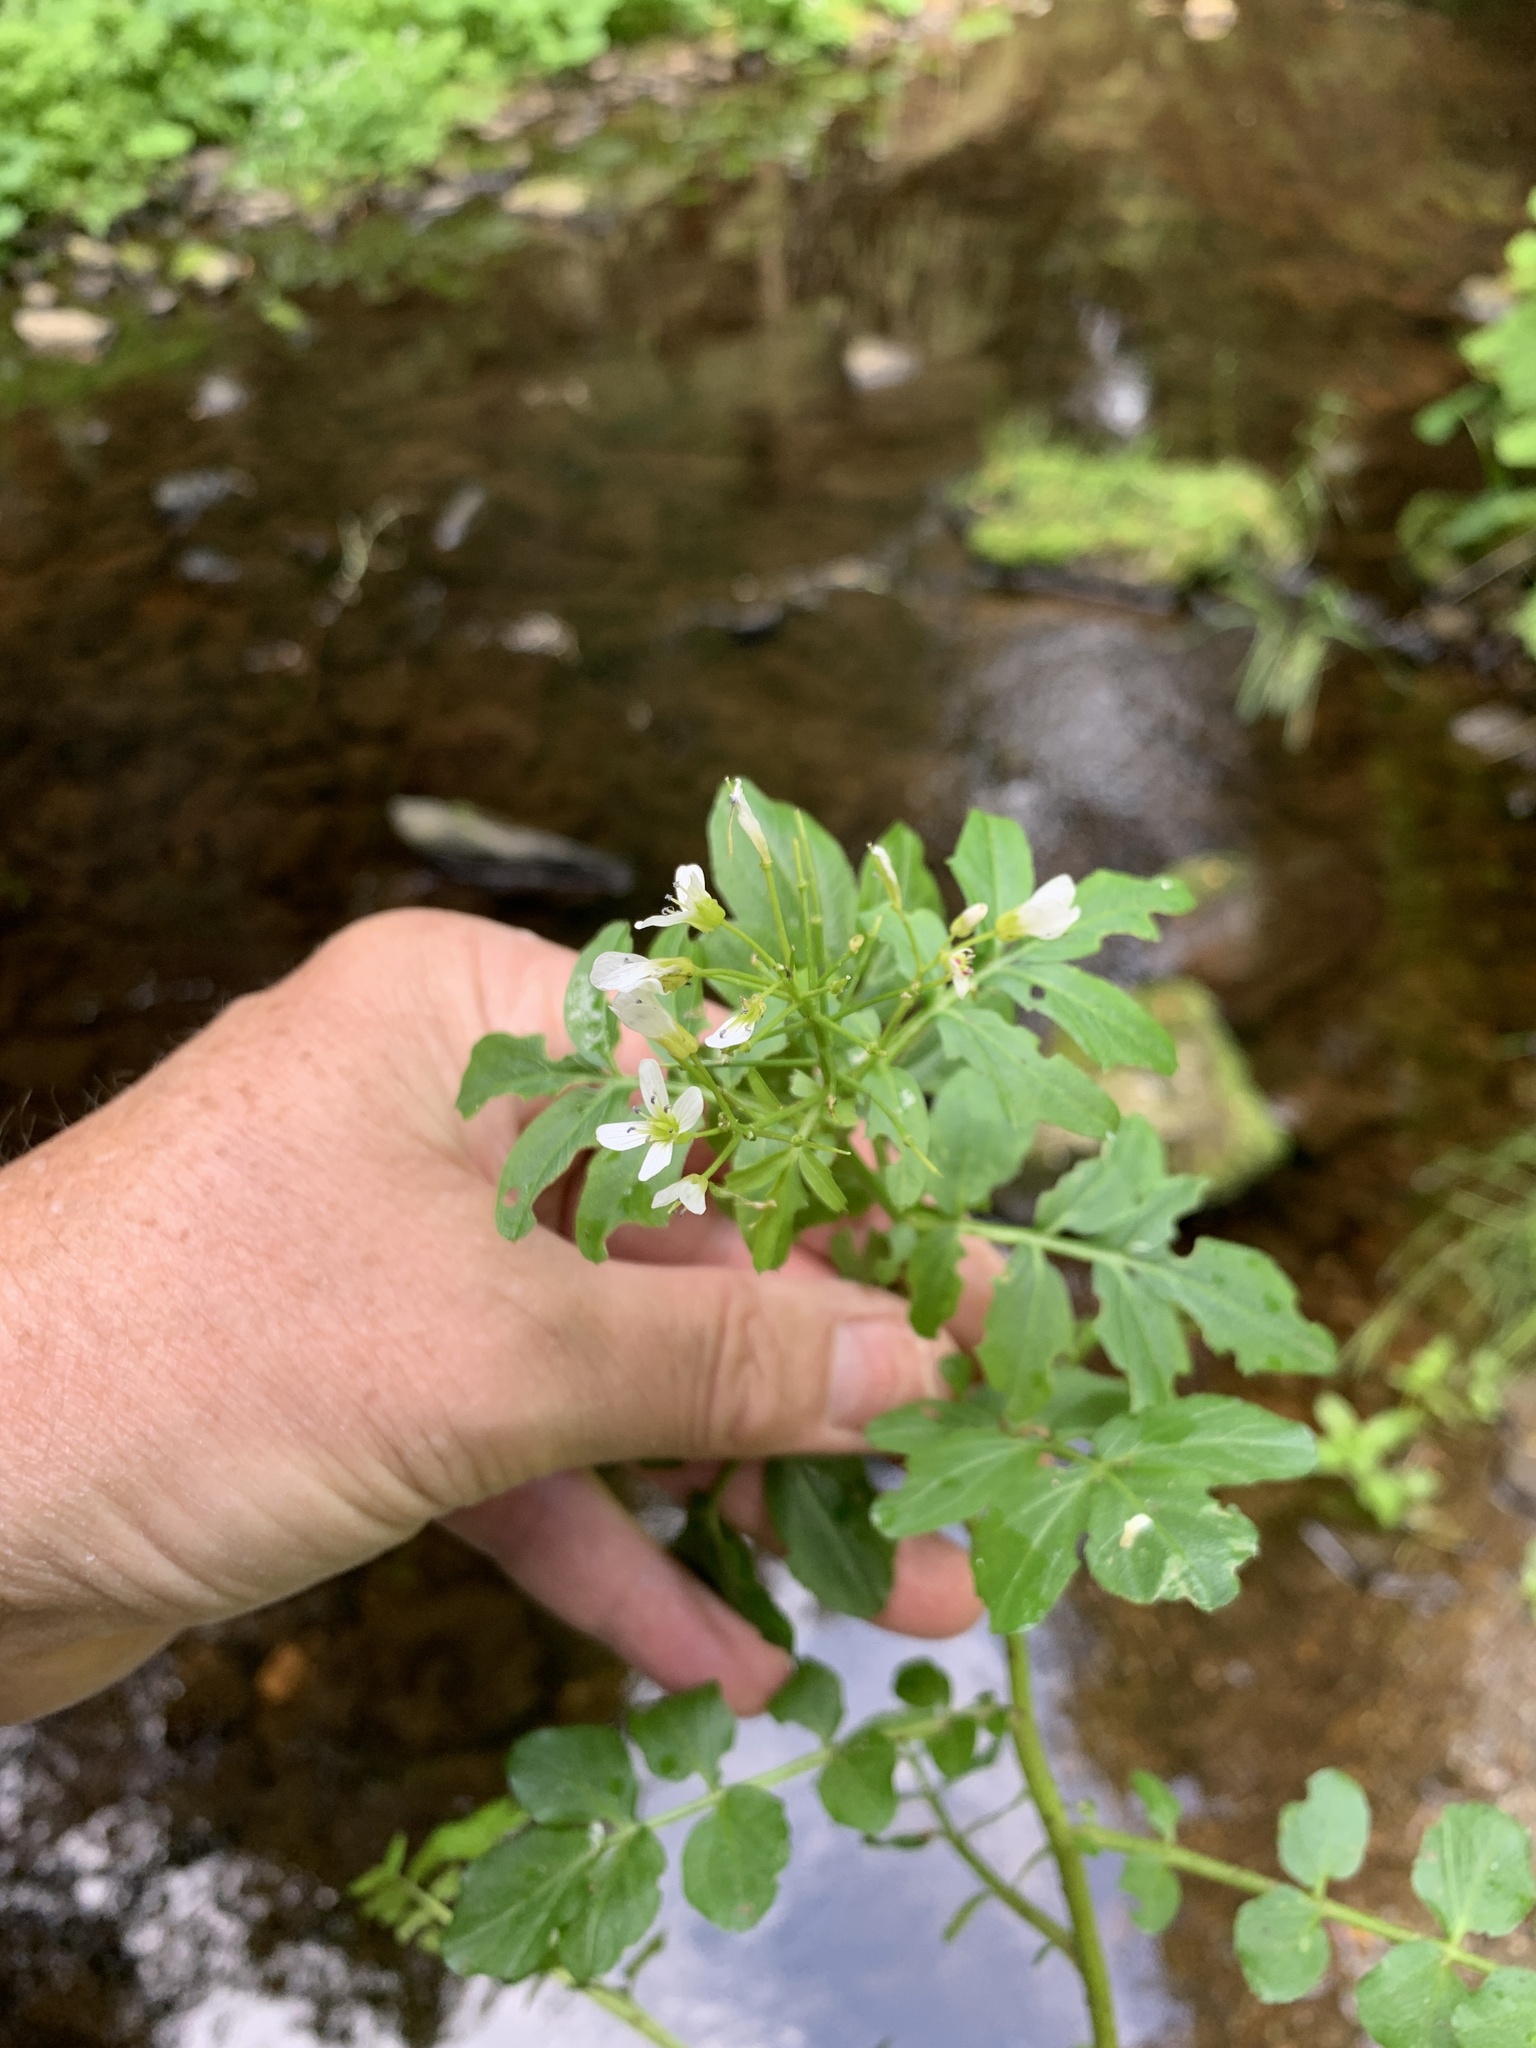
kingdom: Plantae
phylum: Tracheophyta
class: Magnoliopsida
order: Brassicales
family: Brassicaceae
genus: Cardamine
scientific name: Cardamine amara
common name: Large bitter-cress
